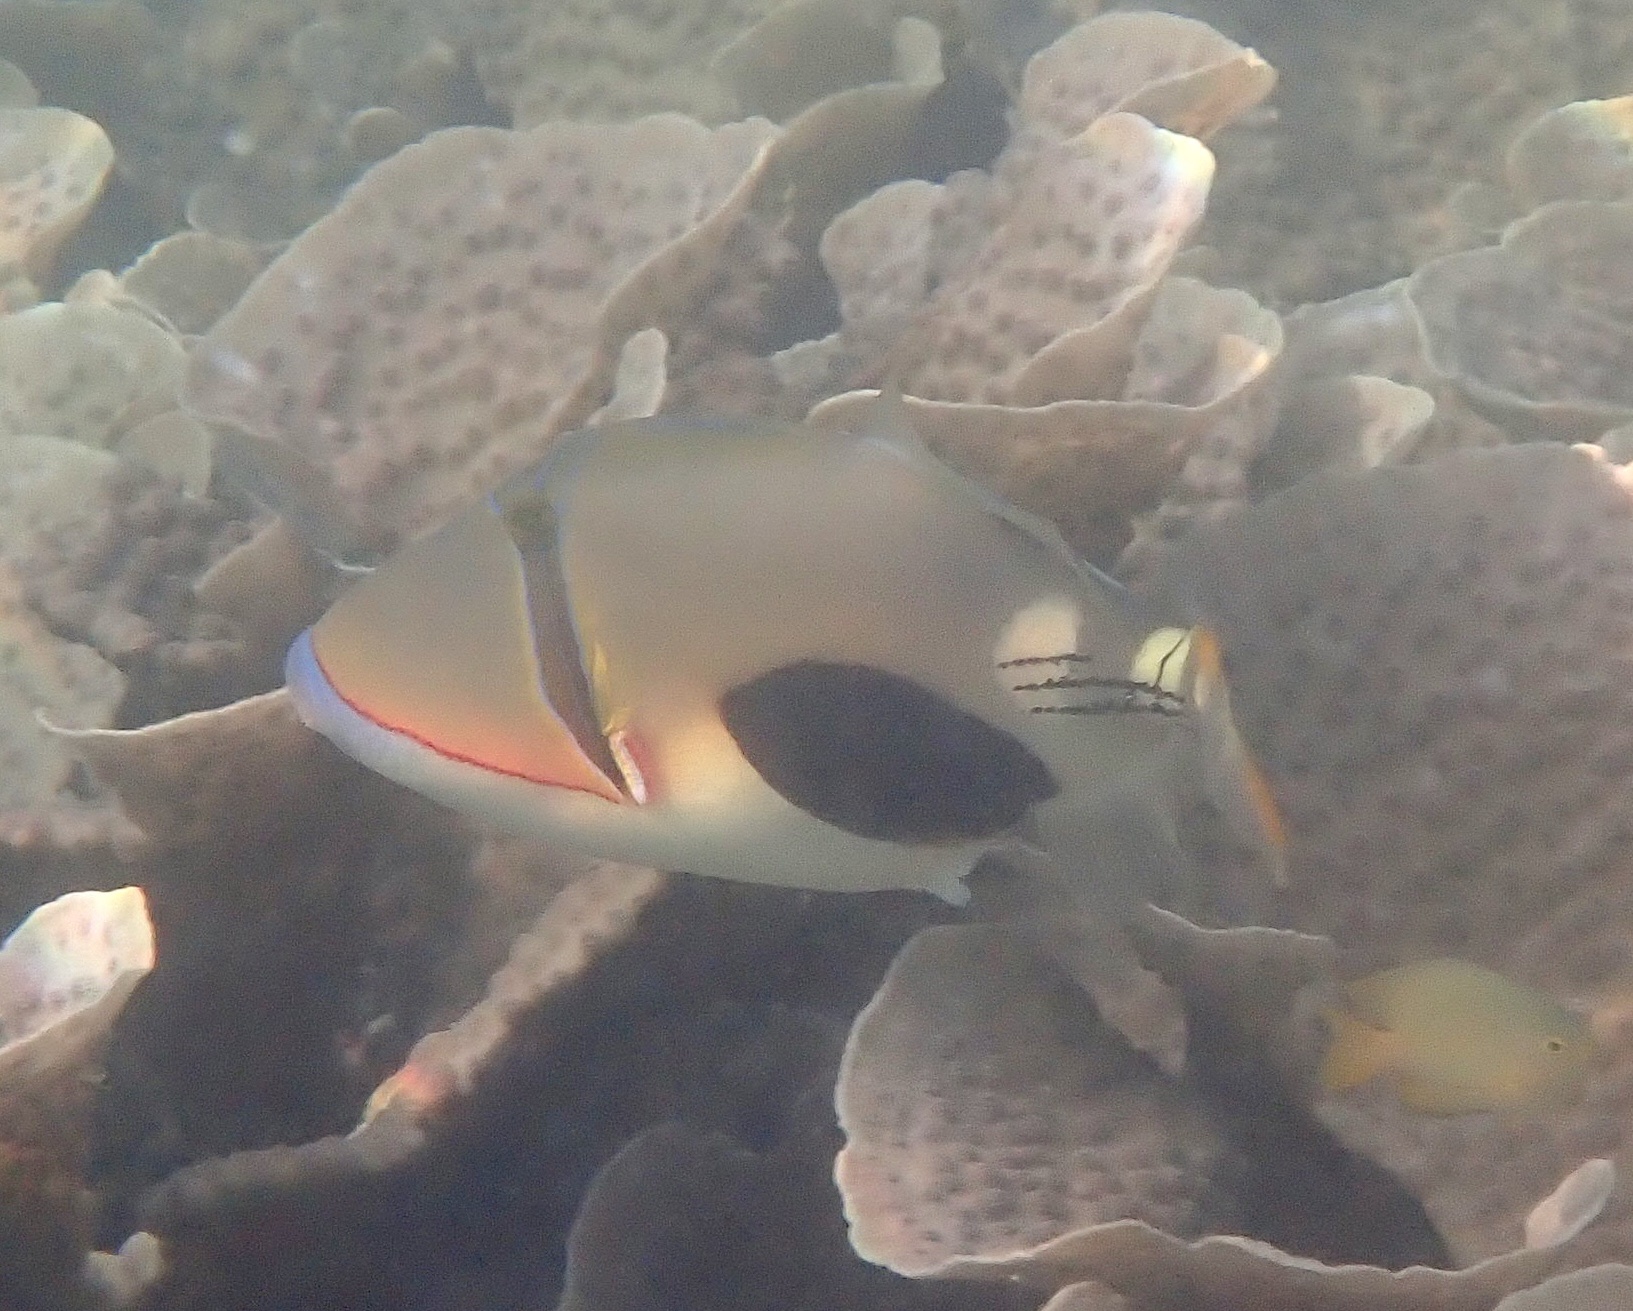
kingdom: Animalia
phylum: Chordata
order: Tetraodontiformes
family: Balistidae
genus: Rhinecanthus
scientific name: Rhinecanthus verrucosus
